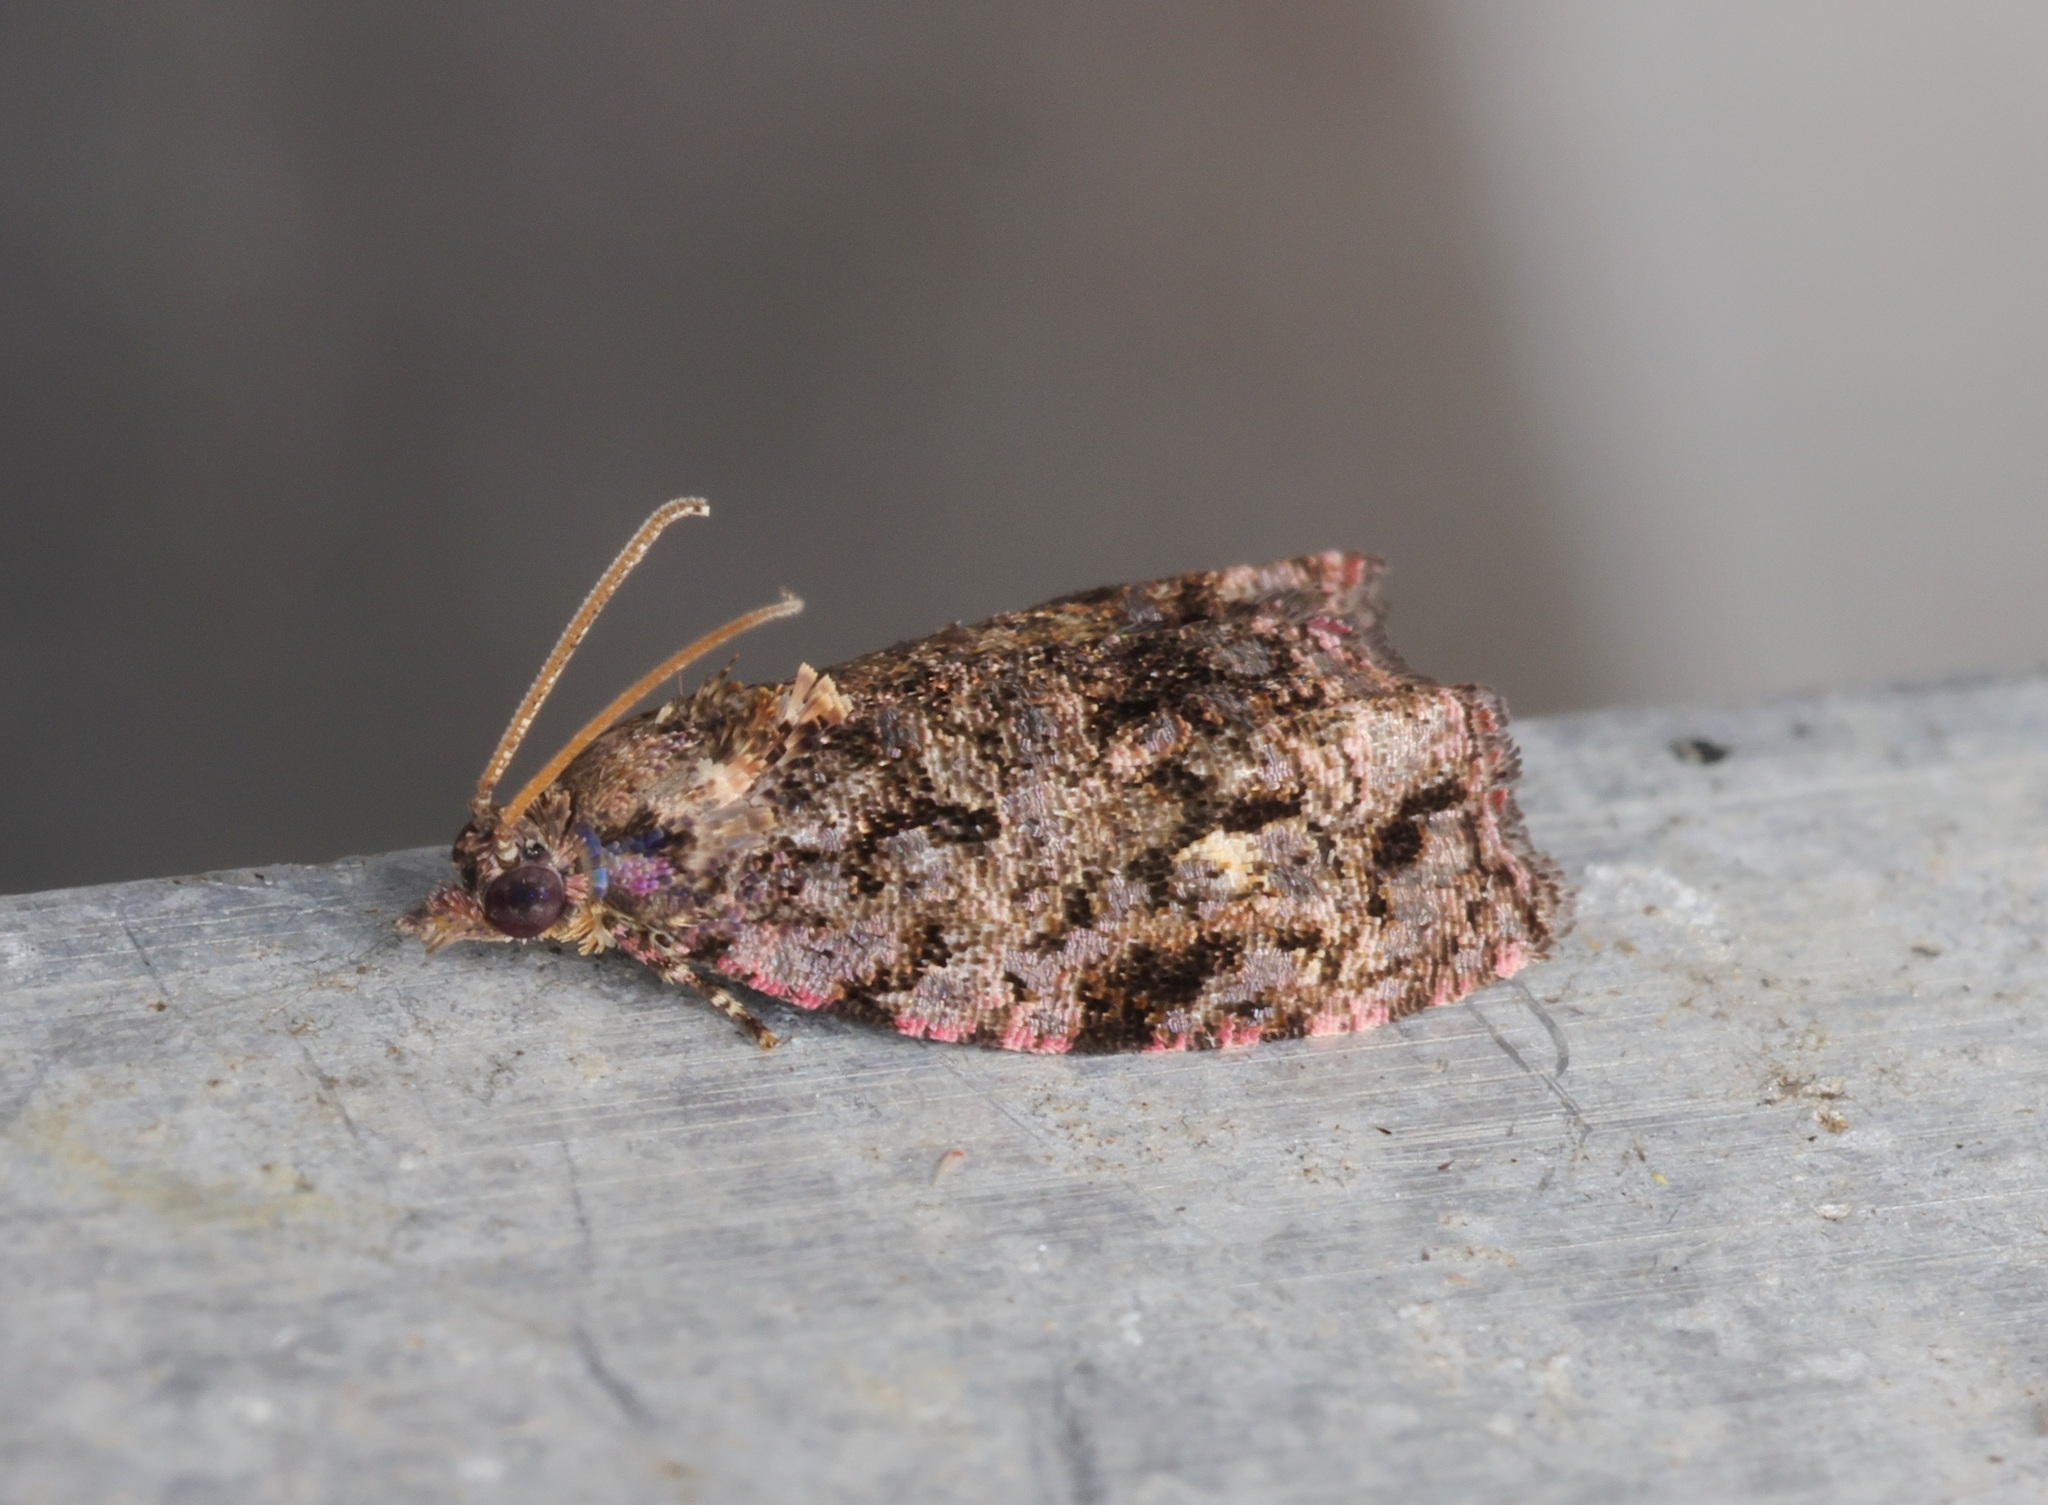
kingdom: Animalia
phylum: Arthropoda
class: Insecta
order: Lepidoptera
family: Tortricidae
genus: Gatesclarkeana
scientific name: Gatesclarkeana idia
